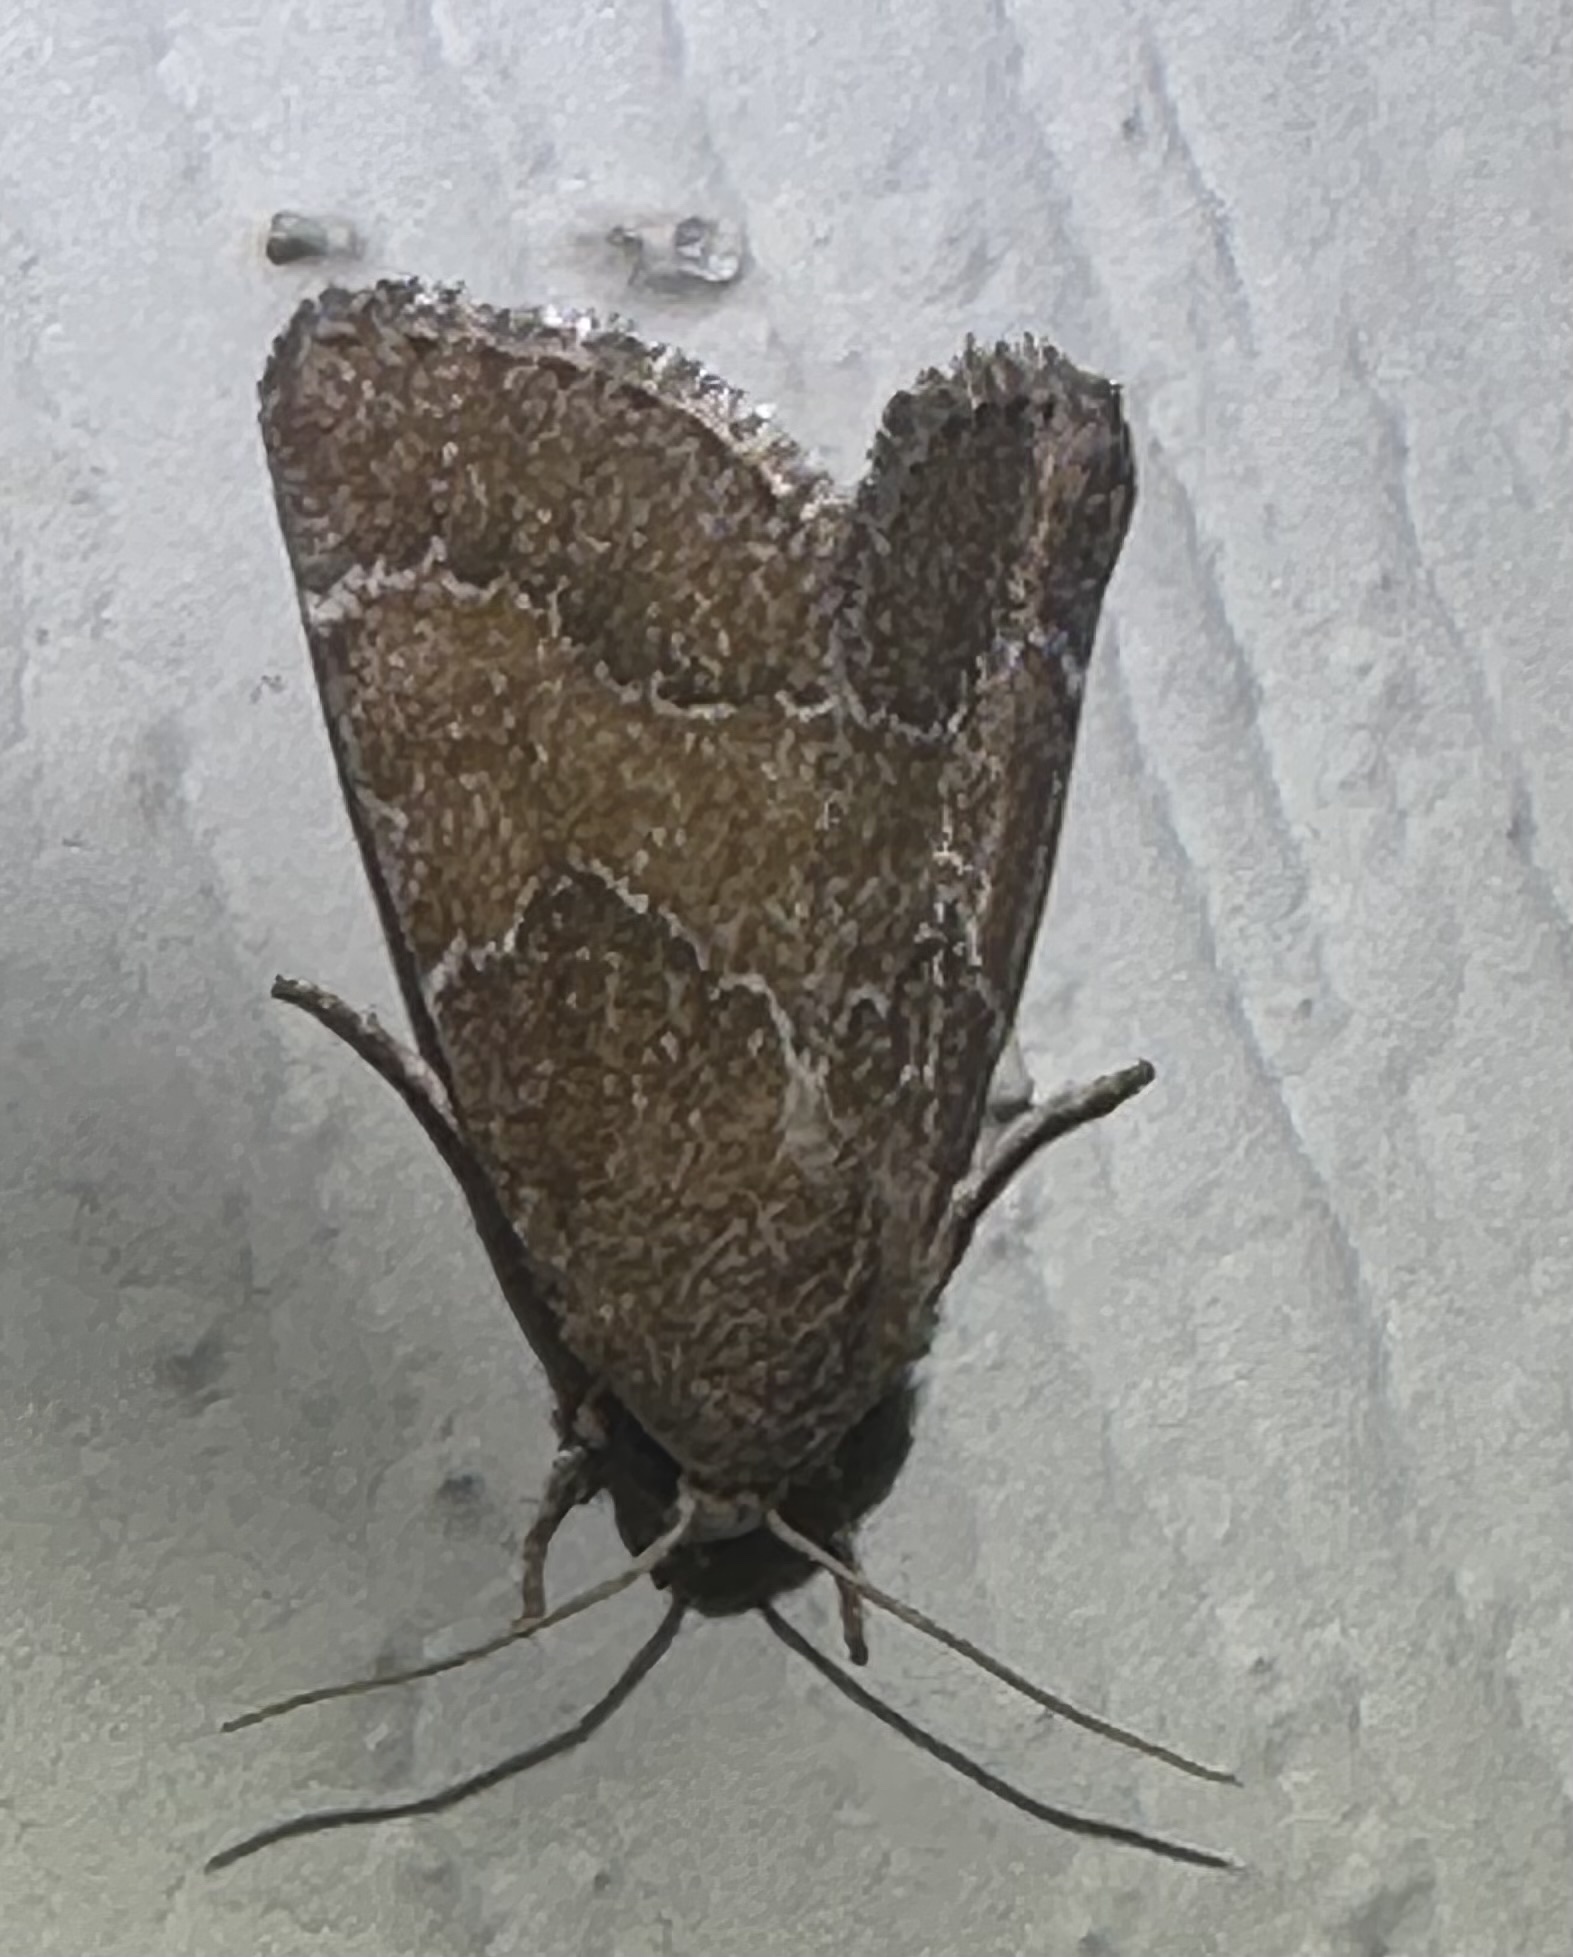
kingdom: Animalia
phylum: Arthropoda
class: Insecta
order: Lepidoptera
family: Noctuidae
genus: Schinia
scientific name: Schinia saturata
